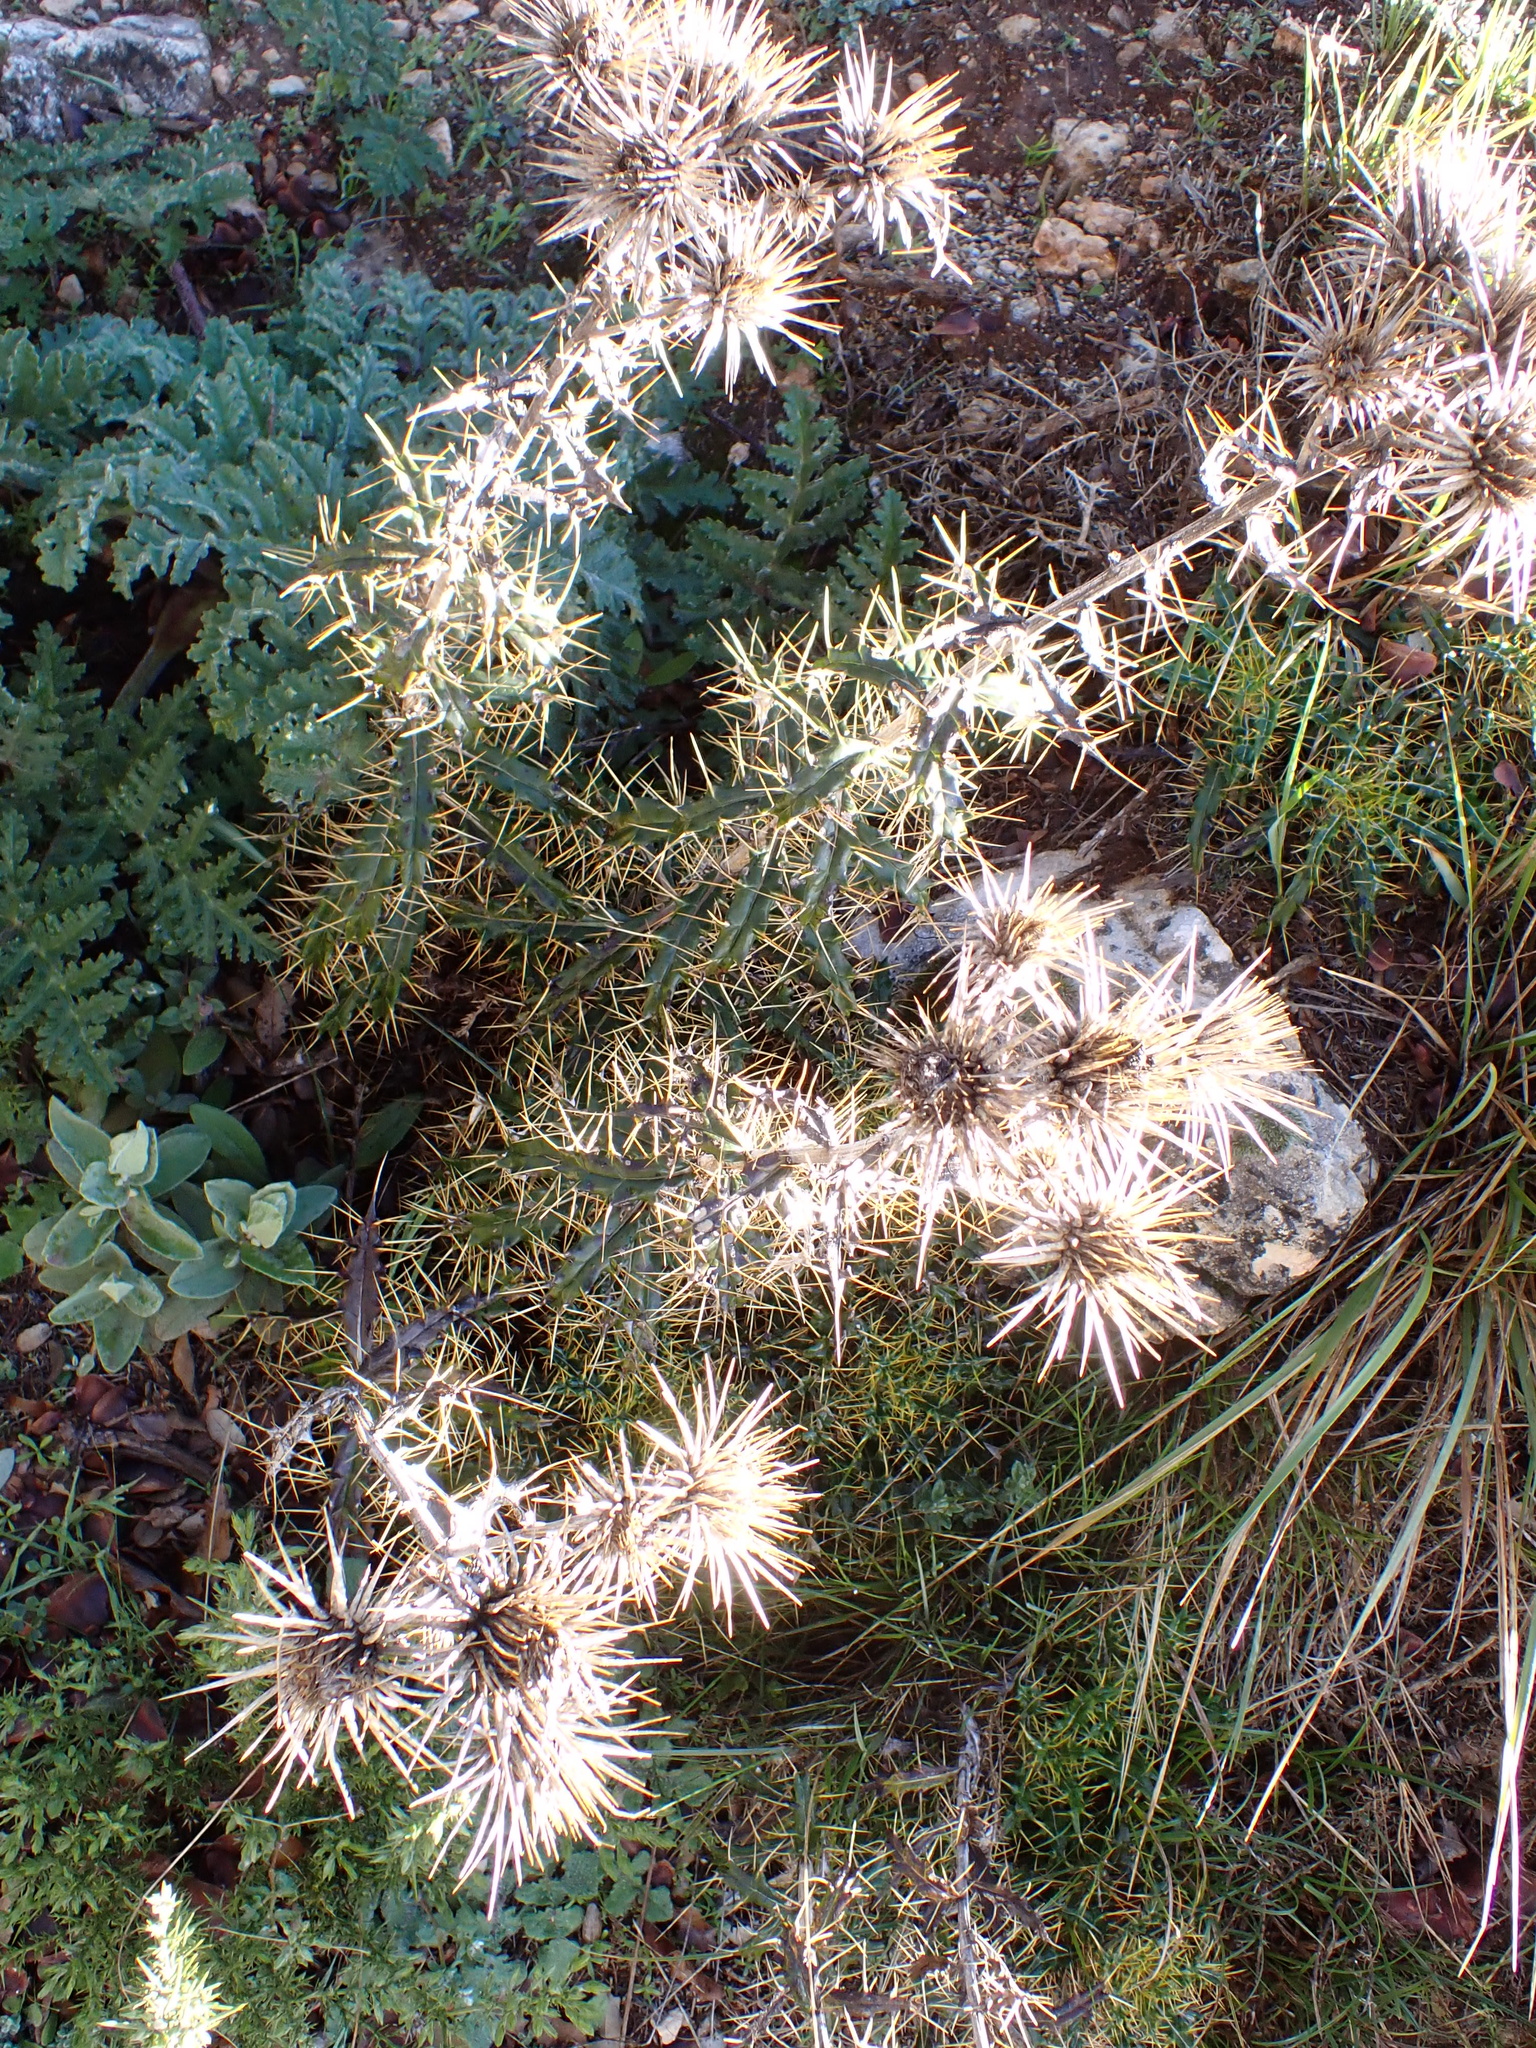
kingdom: Plantae
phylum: Tracheophyta
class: Magnoliopsida
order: Asterales
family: Asteraceae
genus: Ptilostemon
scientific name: Ptilostemon hispanicus
